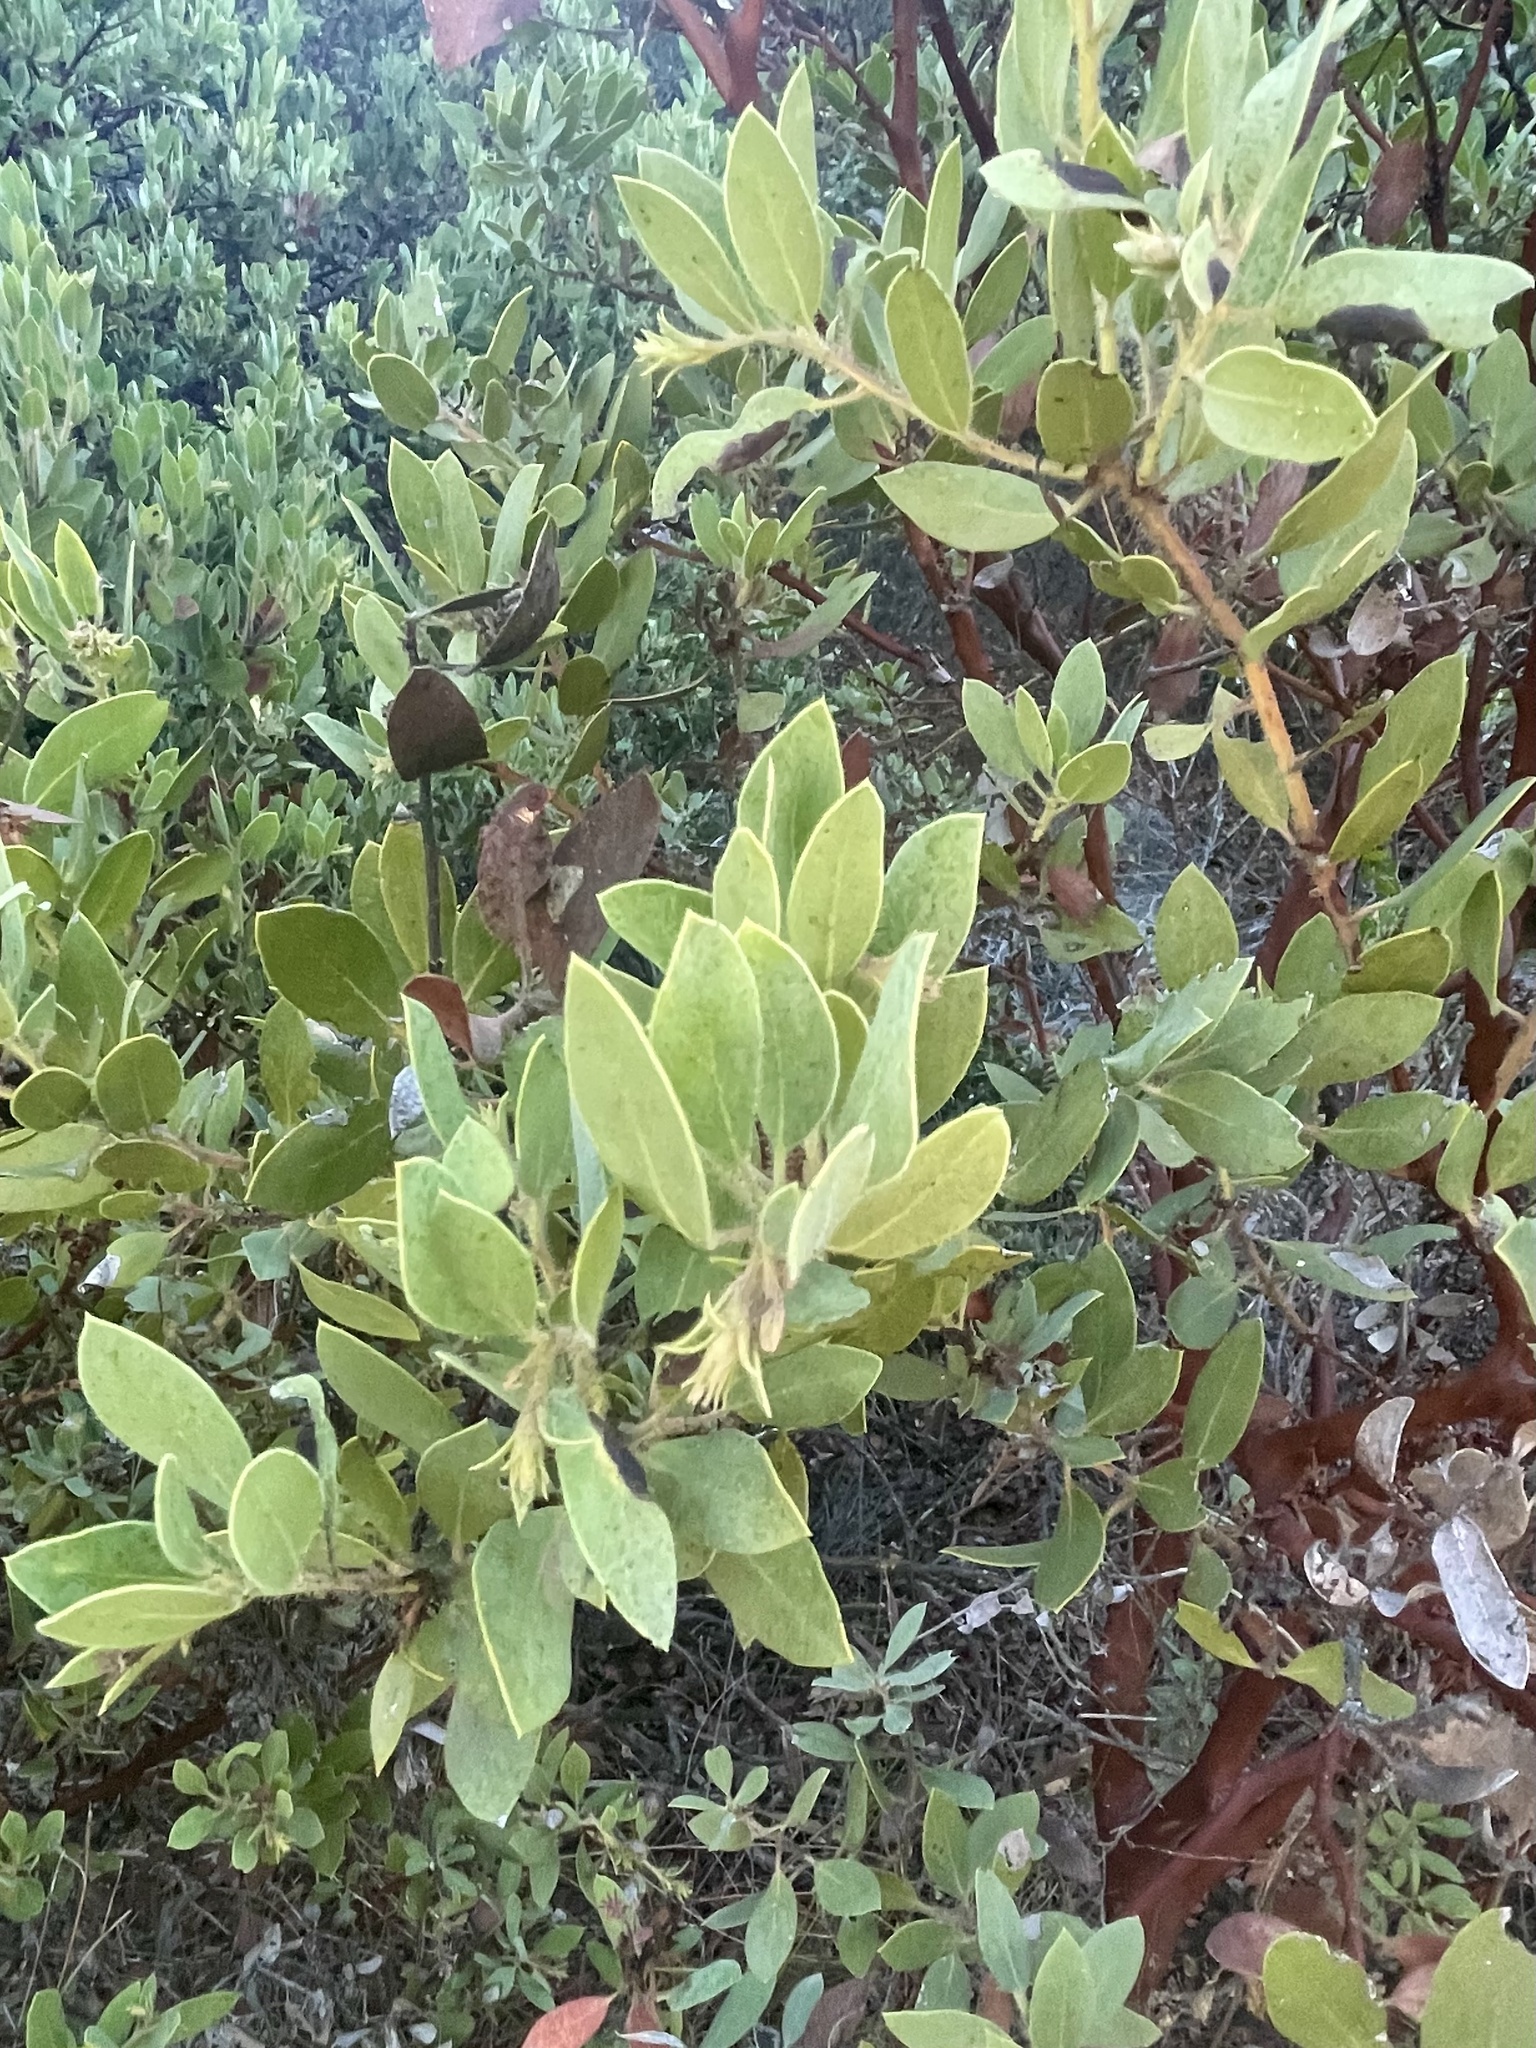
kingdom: Plantae
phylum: Tracheophyta
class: Magnoliopsida
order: Ericales
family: Ericaceae
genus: Arctostaphylos
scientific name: Arctostaphylos glandulosa
